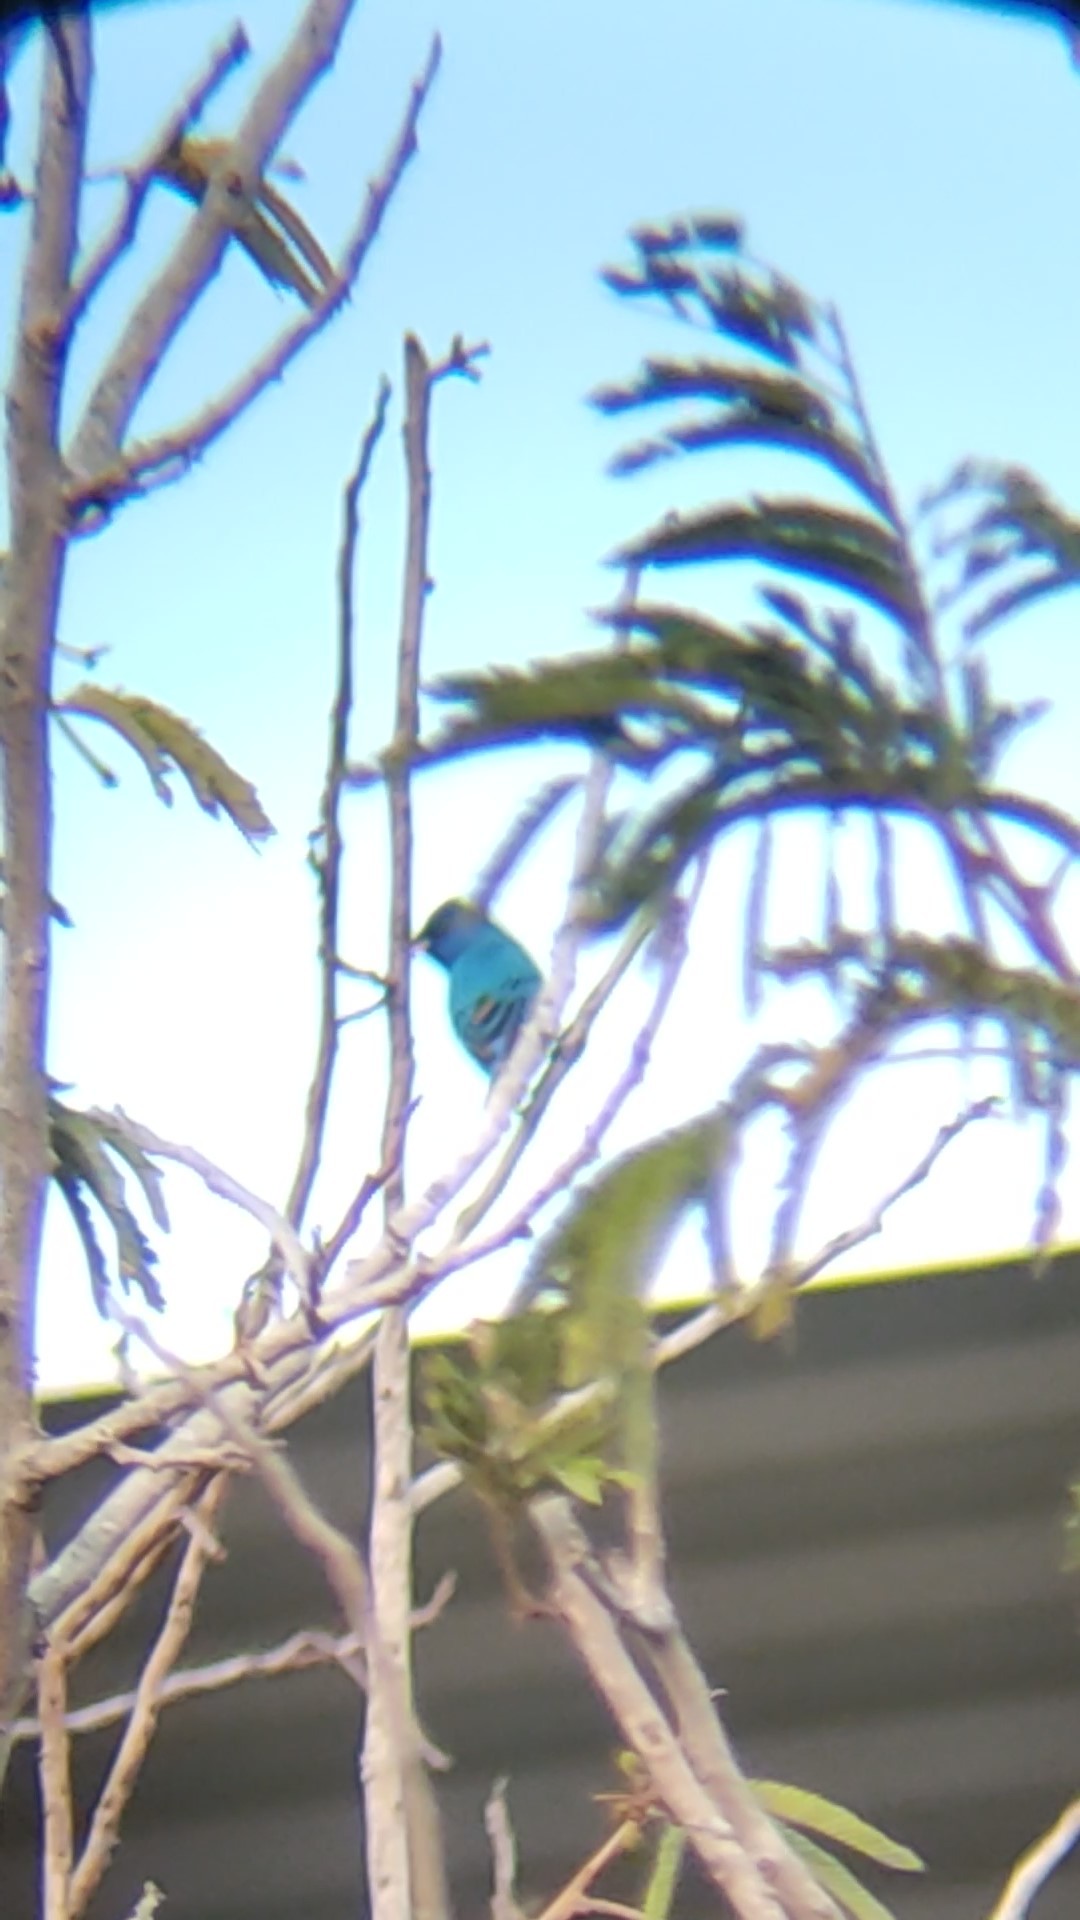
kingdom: Animalia
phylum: Chordata
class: Aves
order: Passeriformes
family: Cardinalidae
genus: Passerina
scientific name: Passerina cyanea
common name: Indigo bunting
